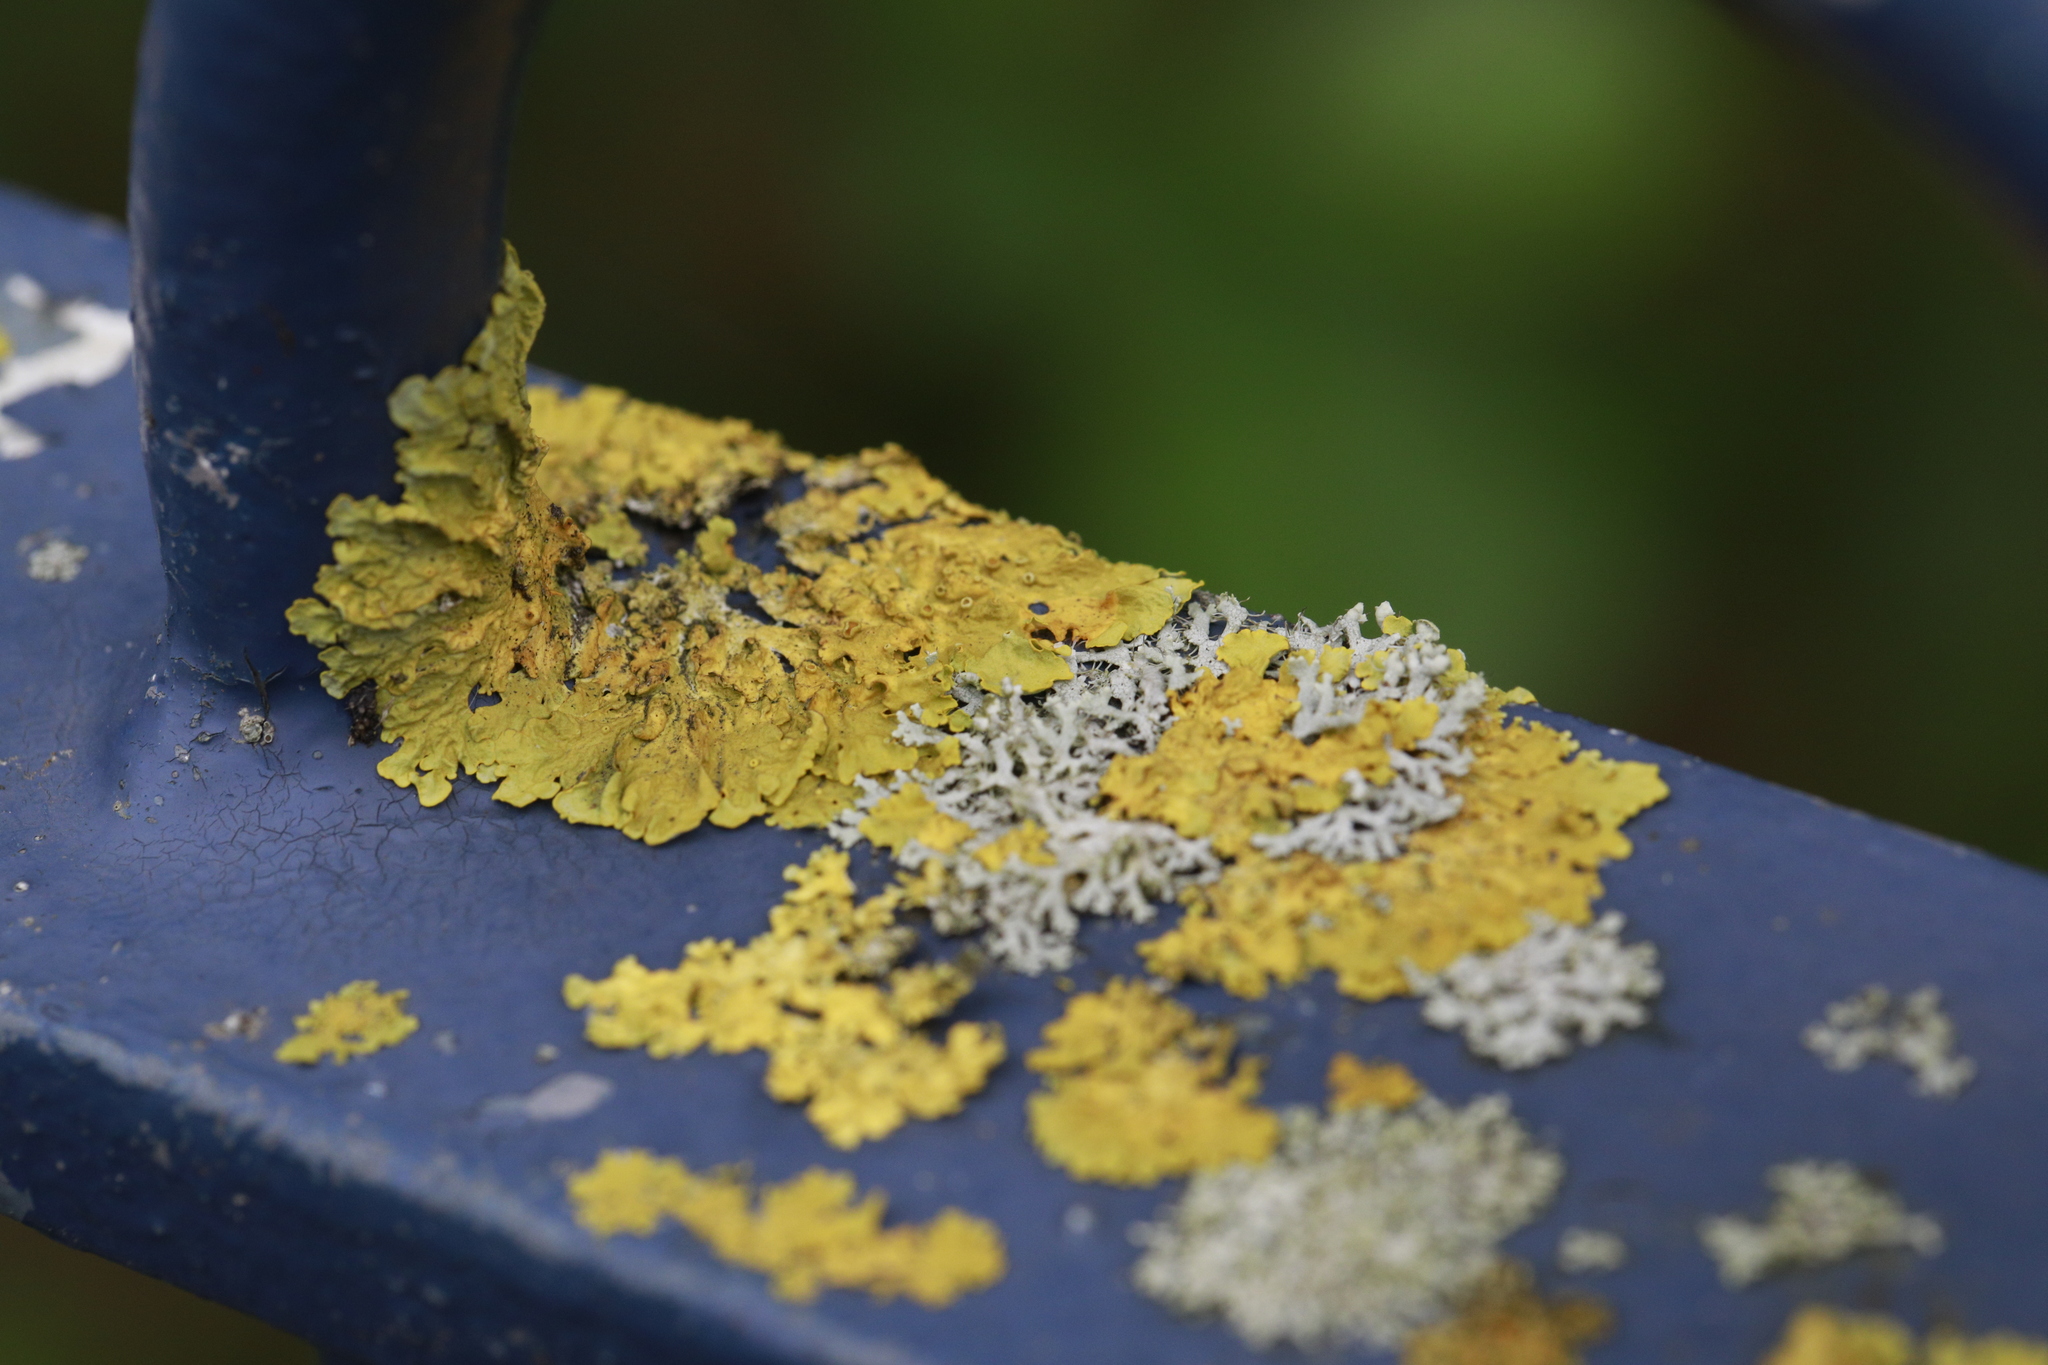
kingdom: Fungi
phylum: Ascomycota
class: Lecanoromycetes
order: Teloschistales
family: Teloschistaceae
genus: Xanthoria
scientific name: Xanthoria parietina
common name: Common orange lichen
